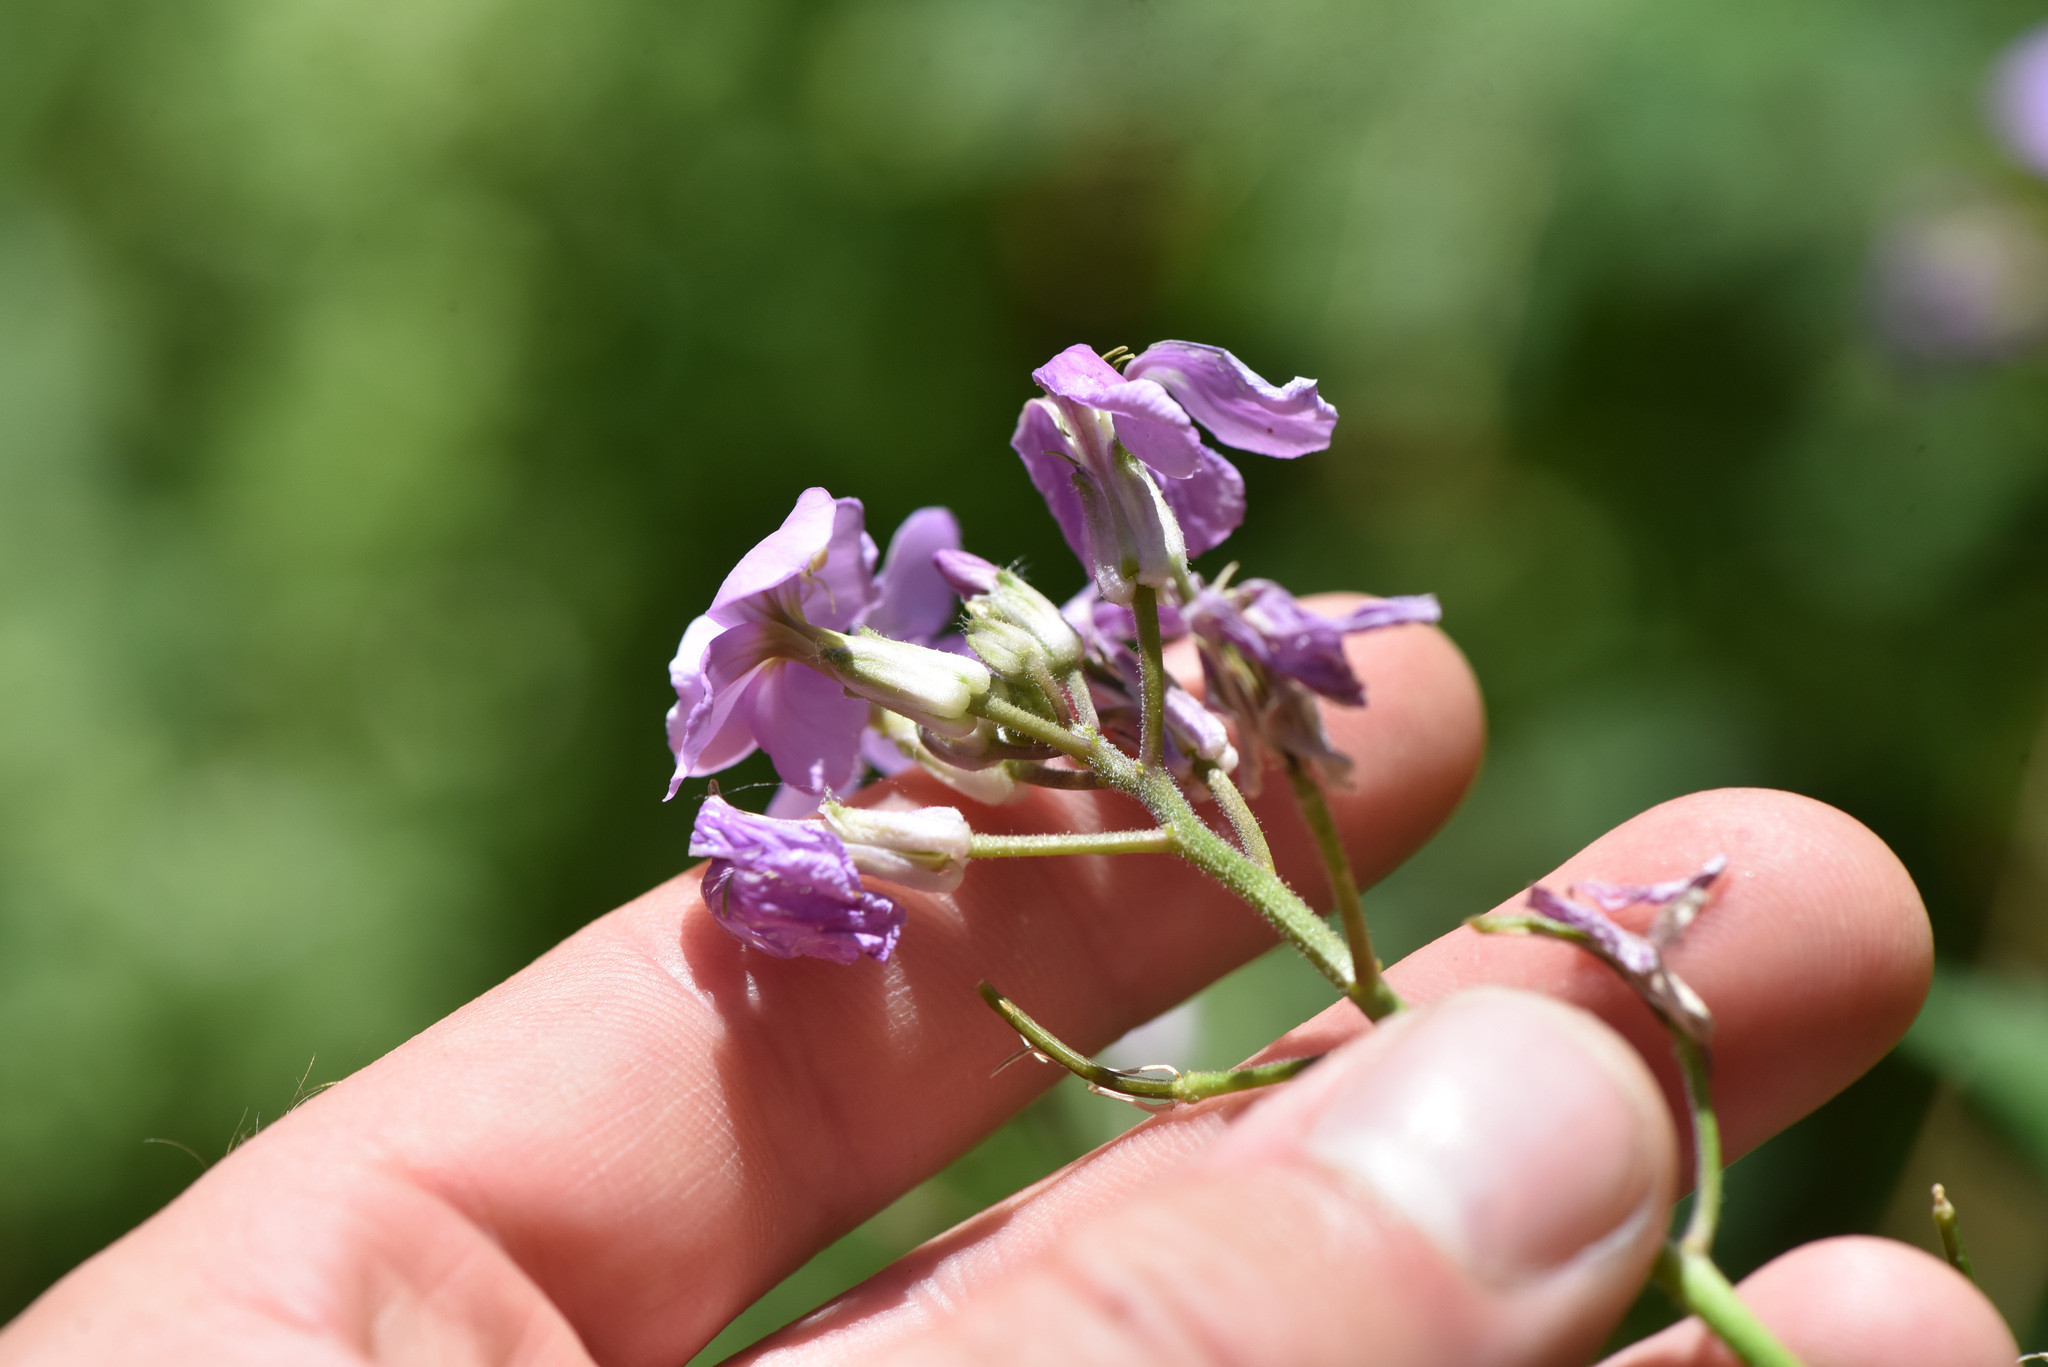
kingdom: Plantae
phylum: Tracheophyta
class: Magnoliopsida
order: Brassicales
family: Brassicaceae
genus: Hesperis
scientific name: Hesperis matronalis
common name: Dame's-violet
